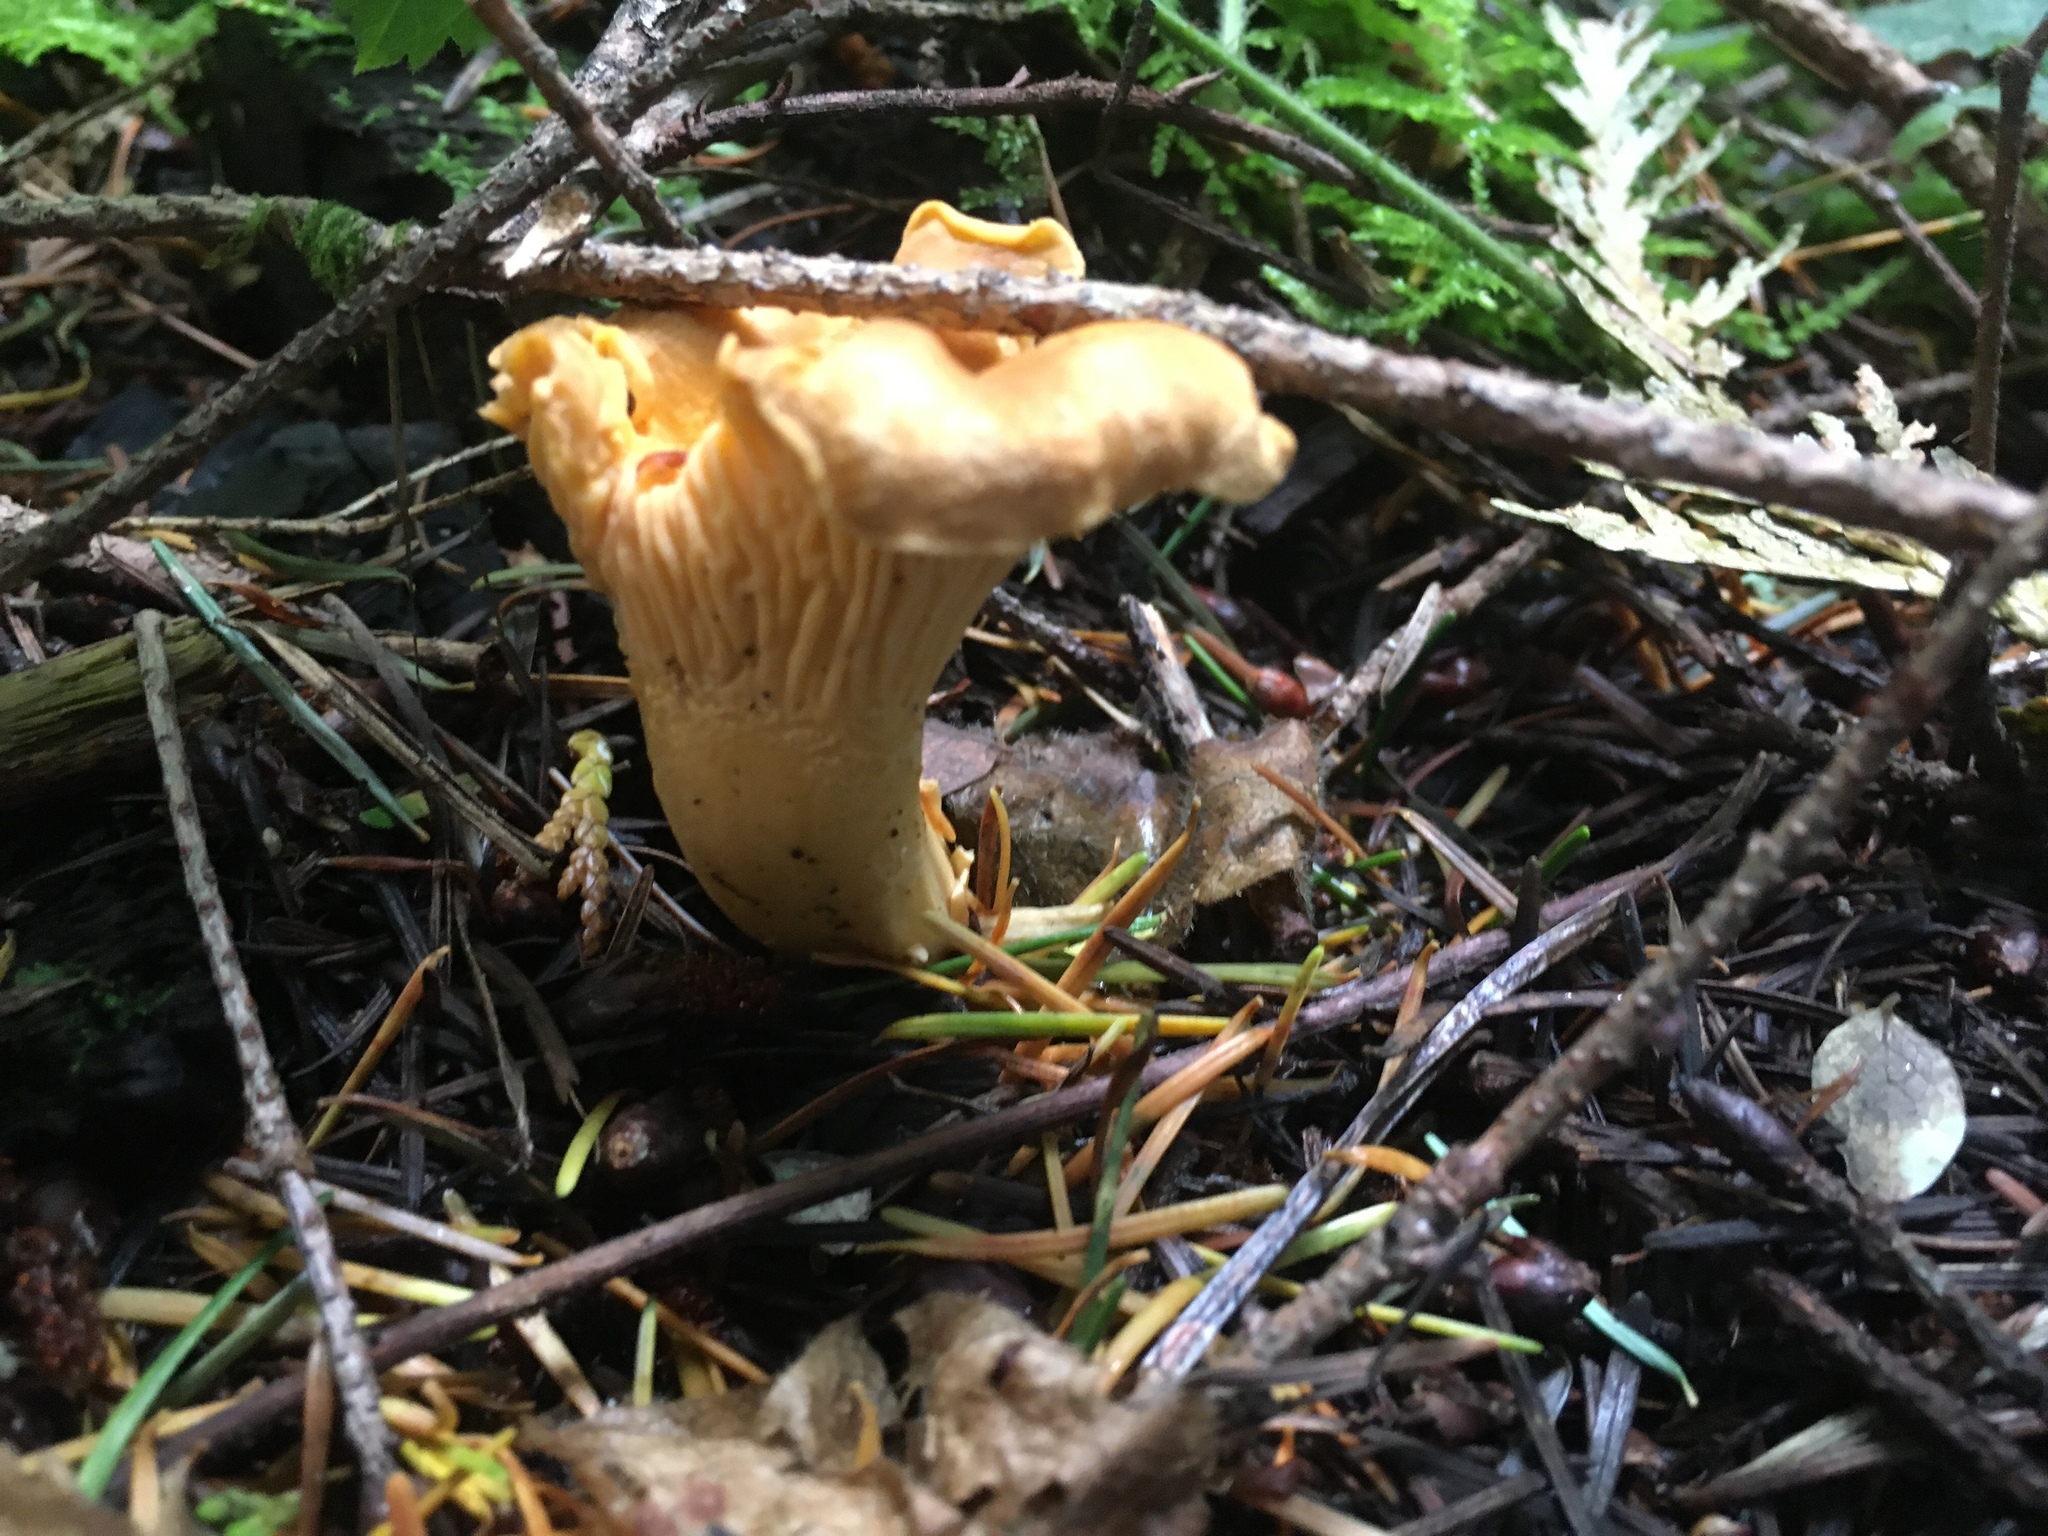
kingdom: Fungi
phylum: Basidiomycota
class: Agaricomycetes
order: Cantharellales
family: Hydnaceae
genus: Cantharellus
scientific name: Cantharellus formosus
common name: Pacific golden chanterelle
